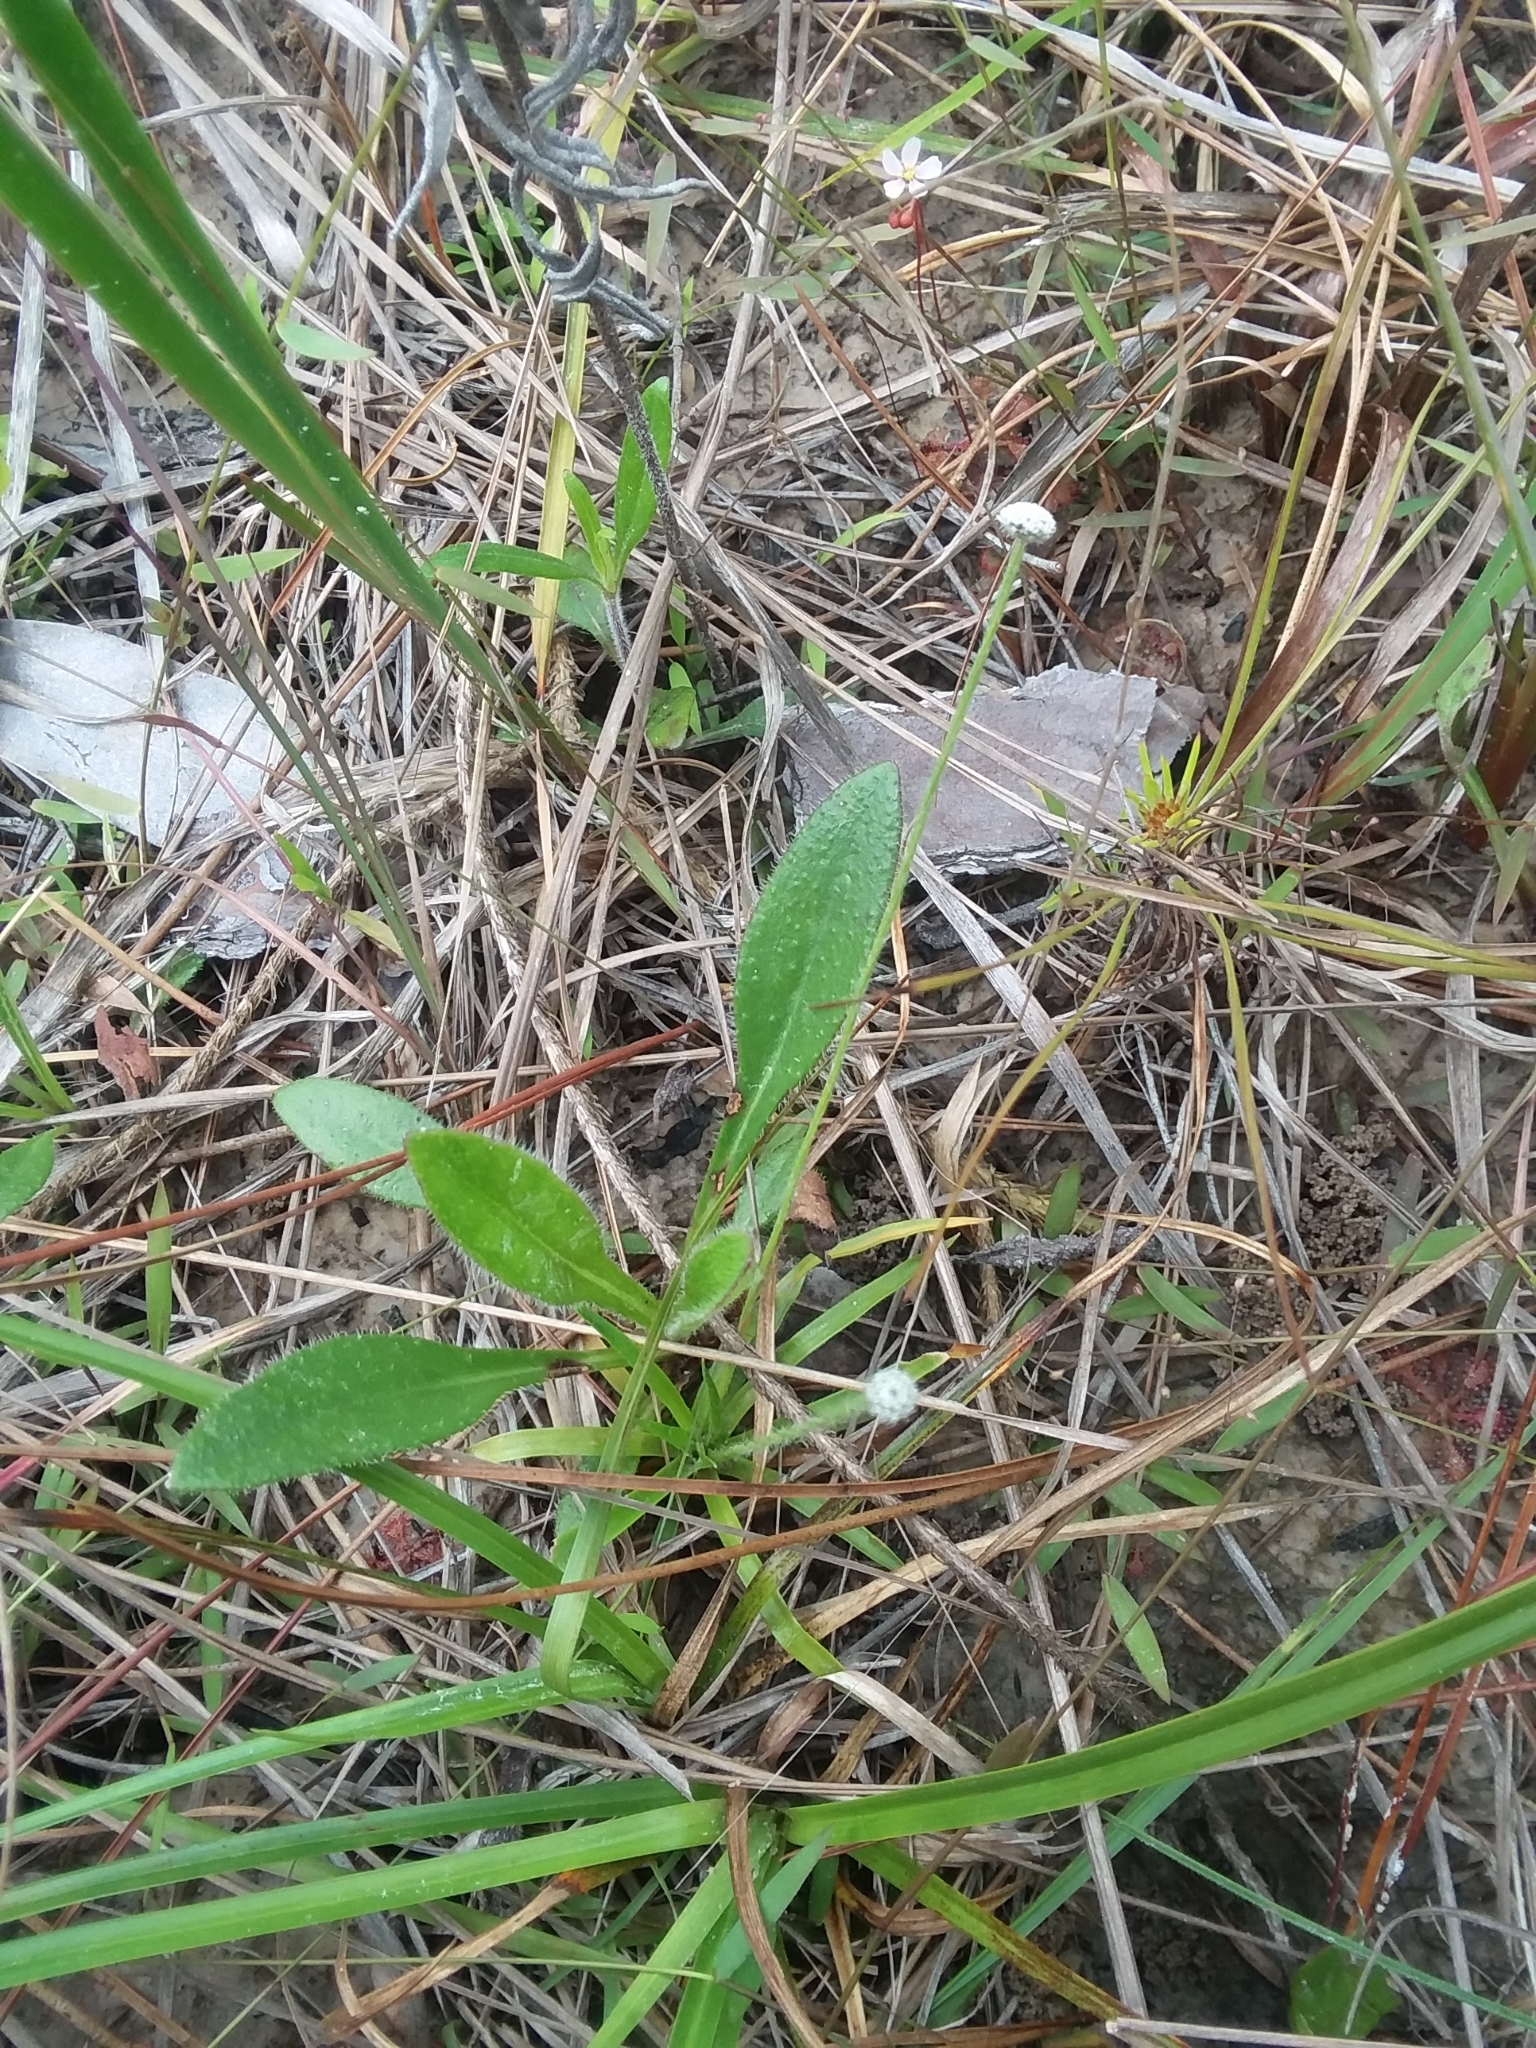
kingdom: Plantae
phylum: Tracheophyta
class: Liliopsida
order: Poales
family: Eriocaulaceae
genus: Paepalanthus
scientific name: Paepalanthus anceps
